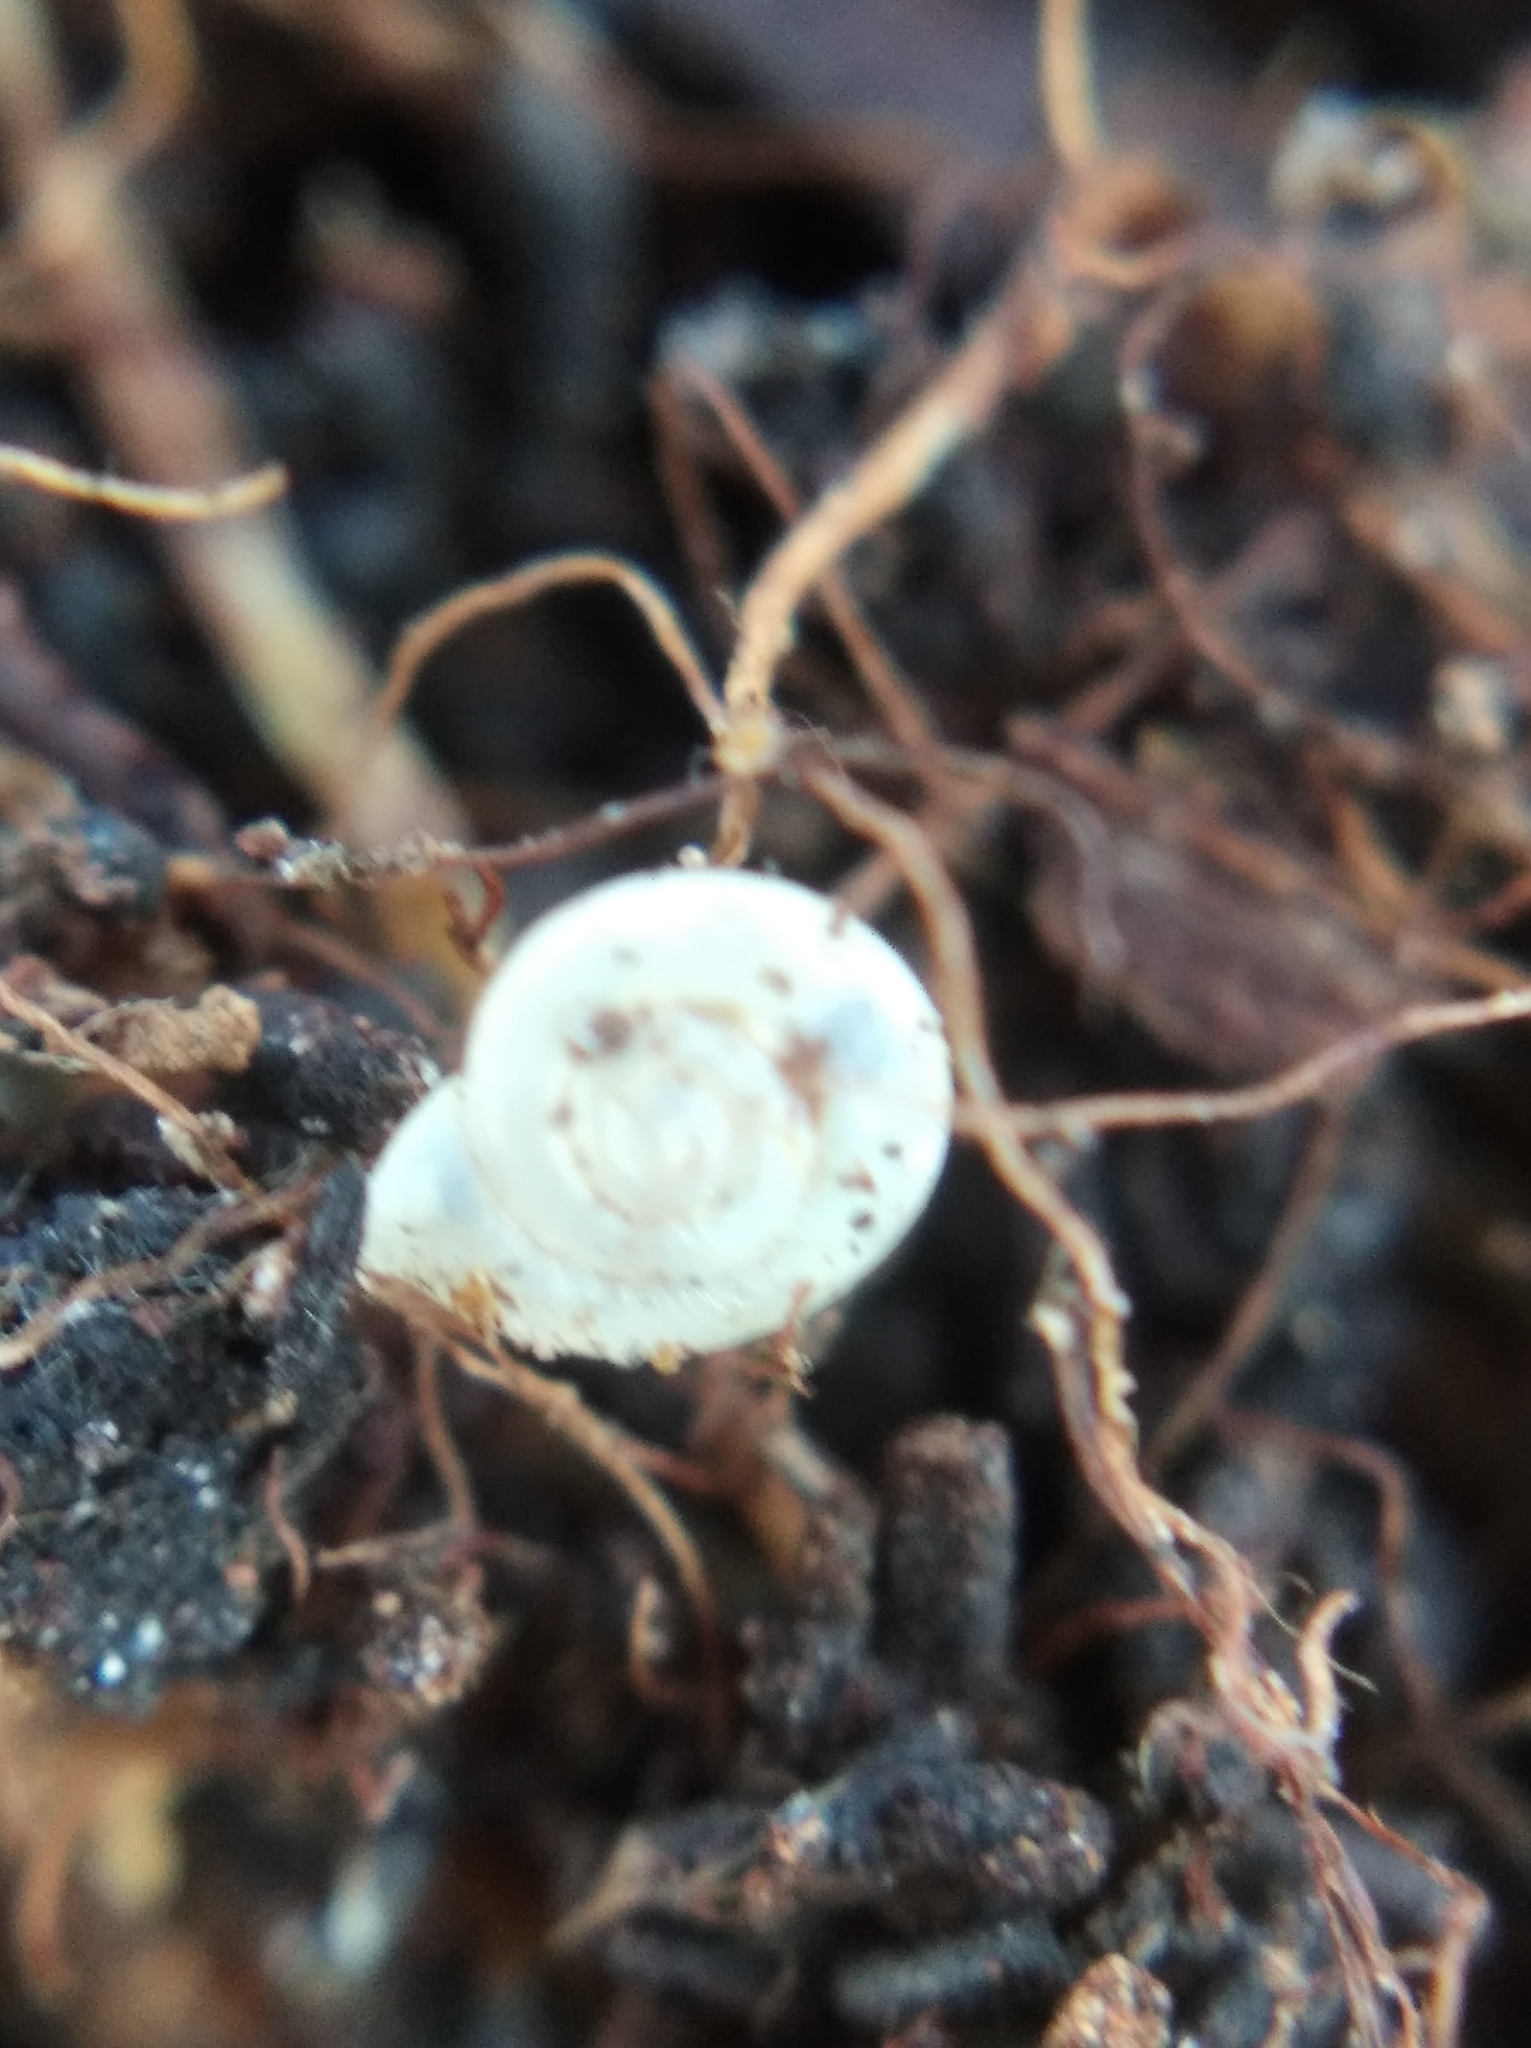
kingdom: Animalia
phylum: Mollusca
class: Gastropoda
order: Stylommatophora
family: Valloniidae
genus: Vallonia
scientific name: Vallonia costata
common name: Ribbed grass snail
